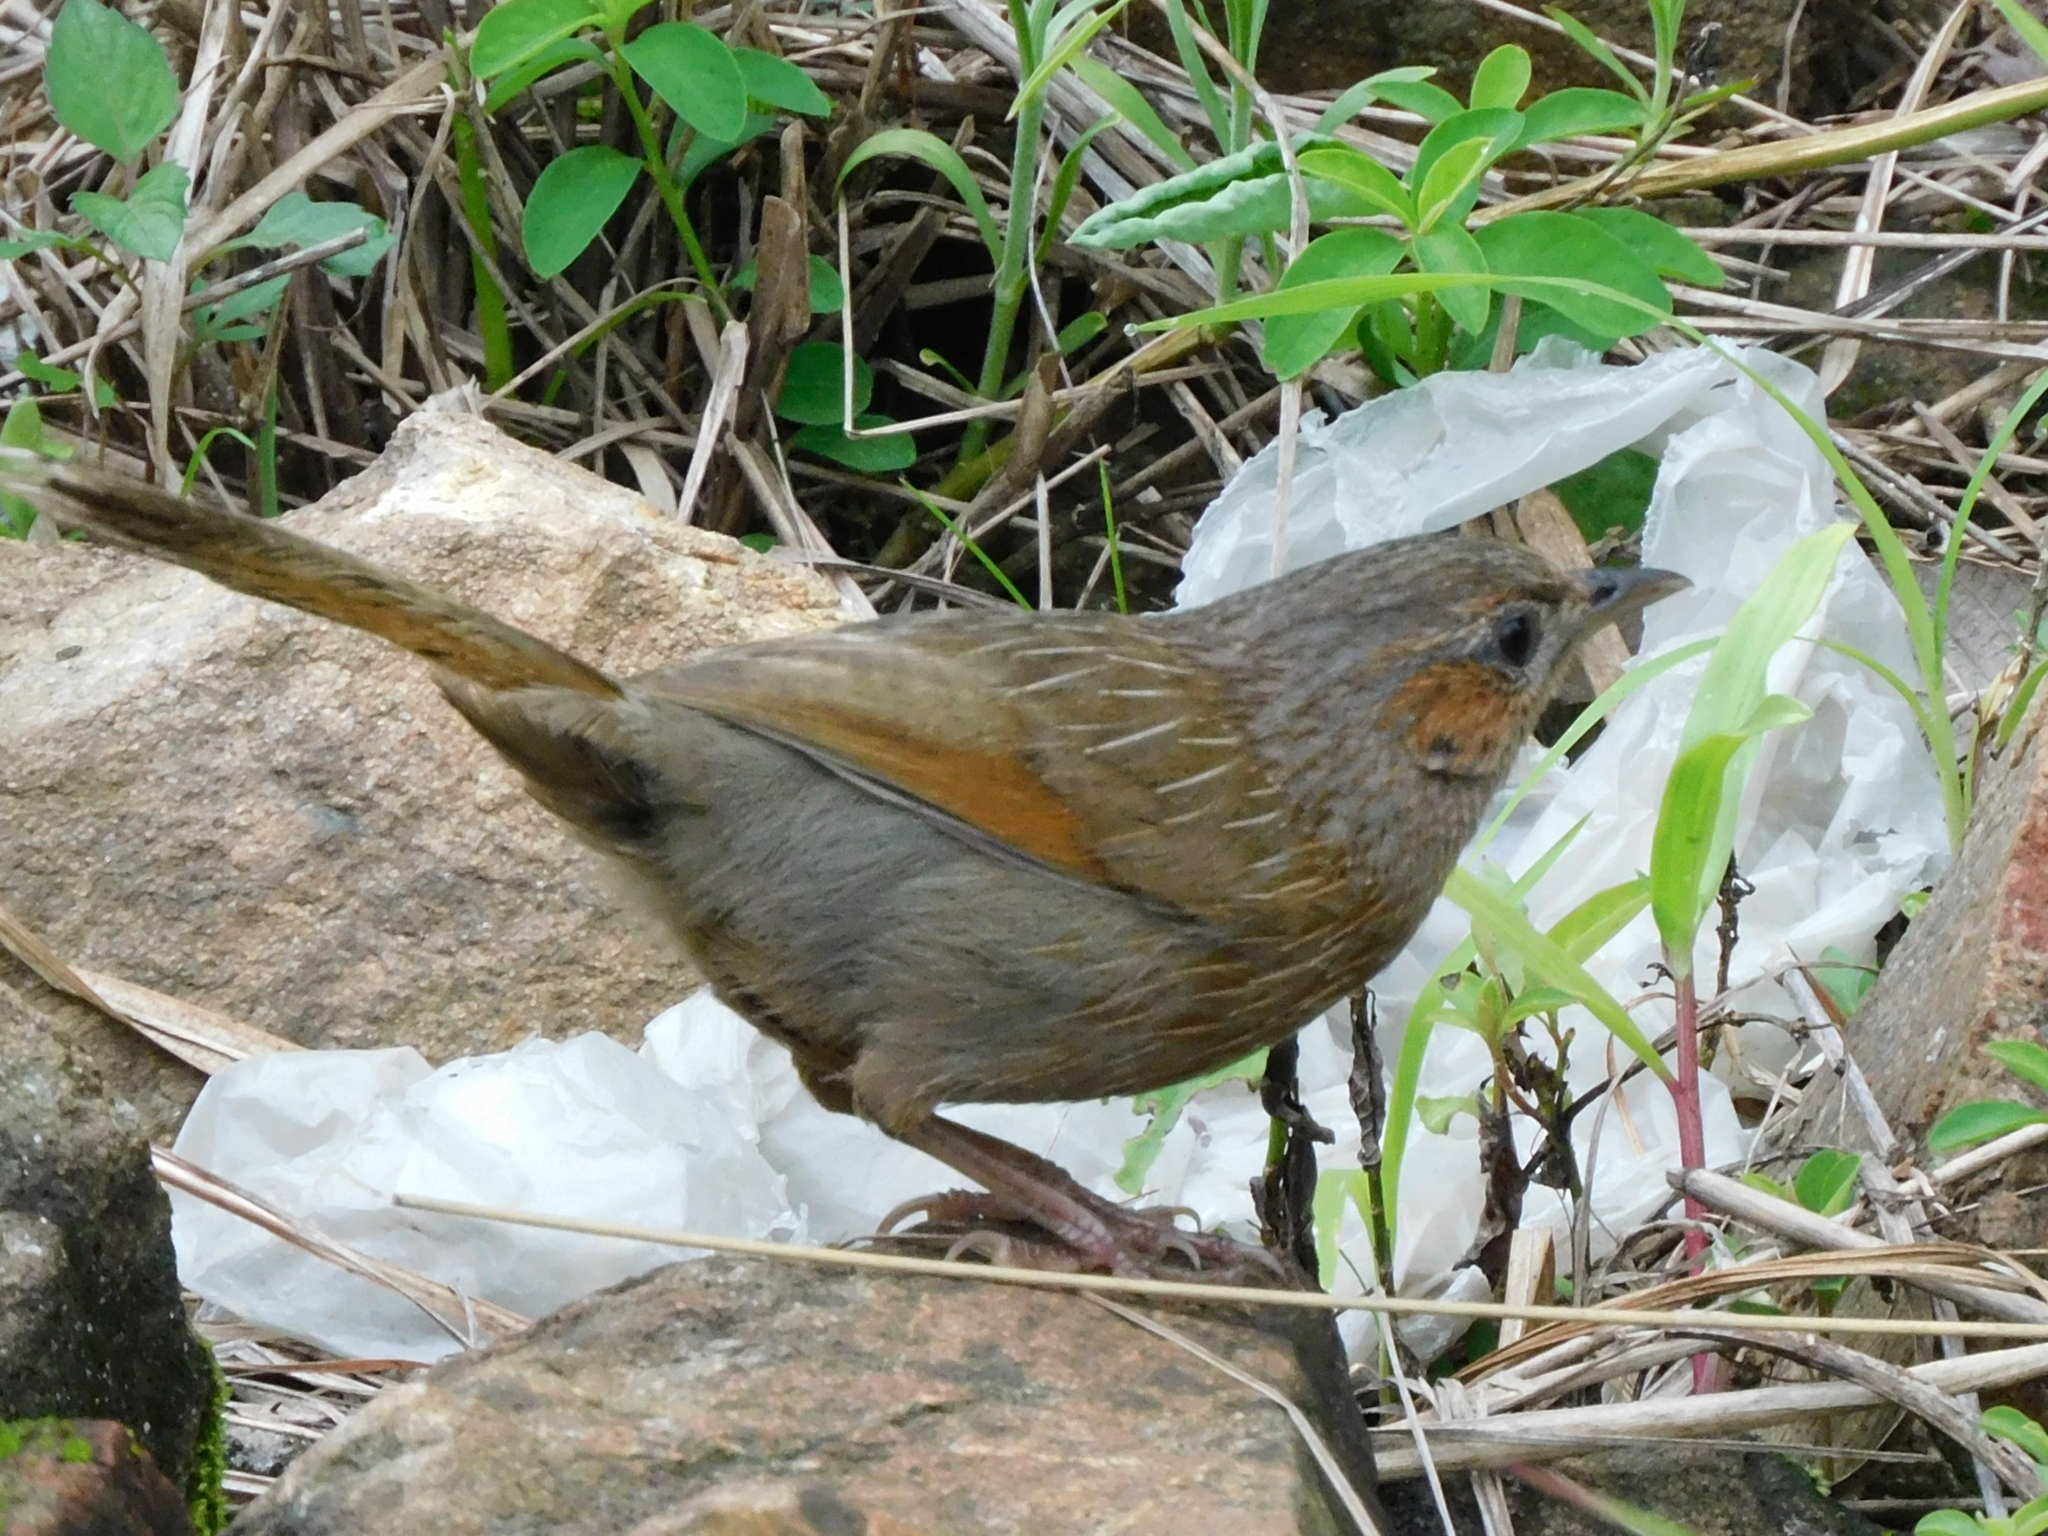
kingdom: Animalia
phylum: Chordata
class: Aves
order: Passeriformes
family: Leiothrichidae
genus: Trochalopteron
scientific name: Trochalopteron lineatum
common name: Streaked laughingthrush
